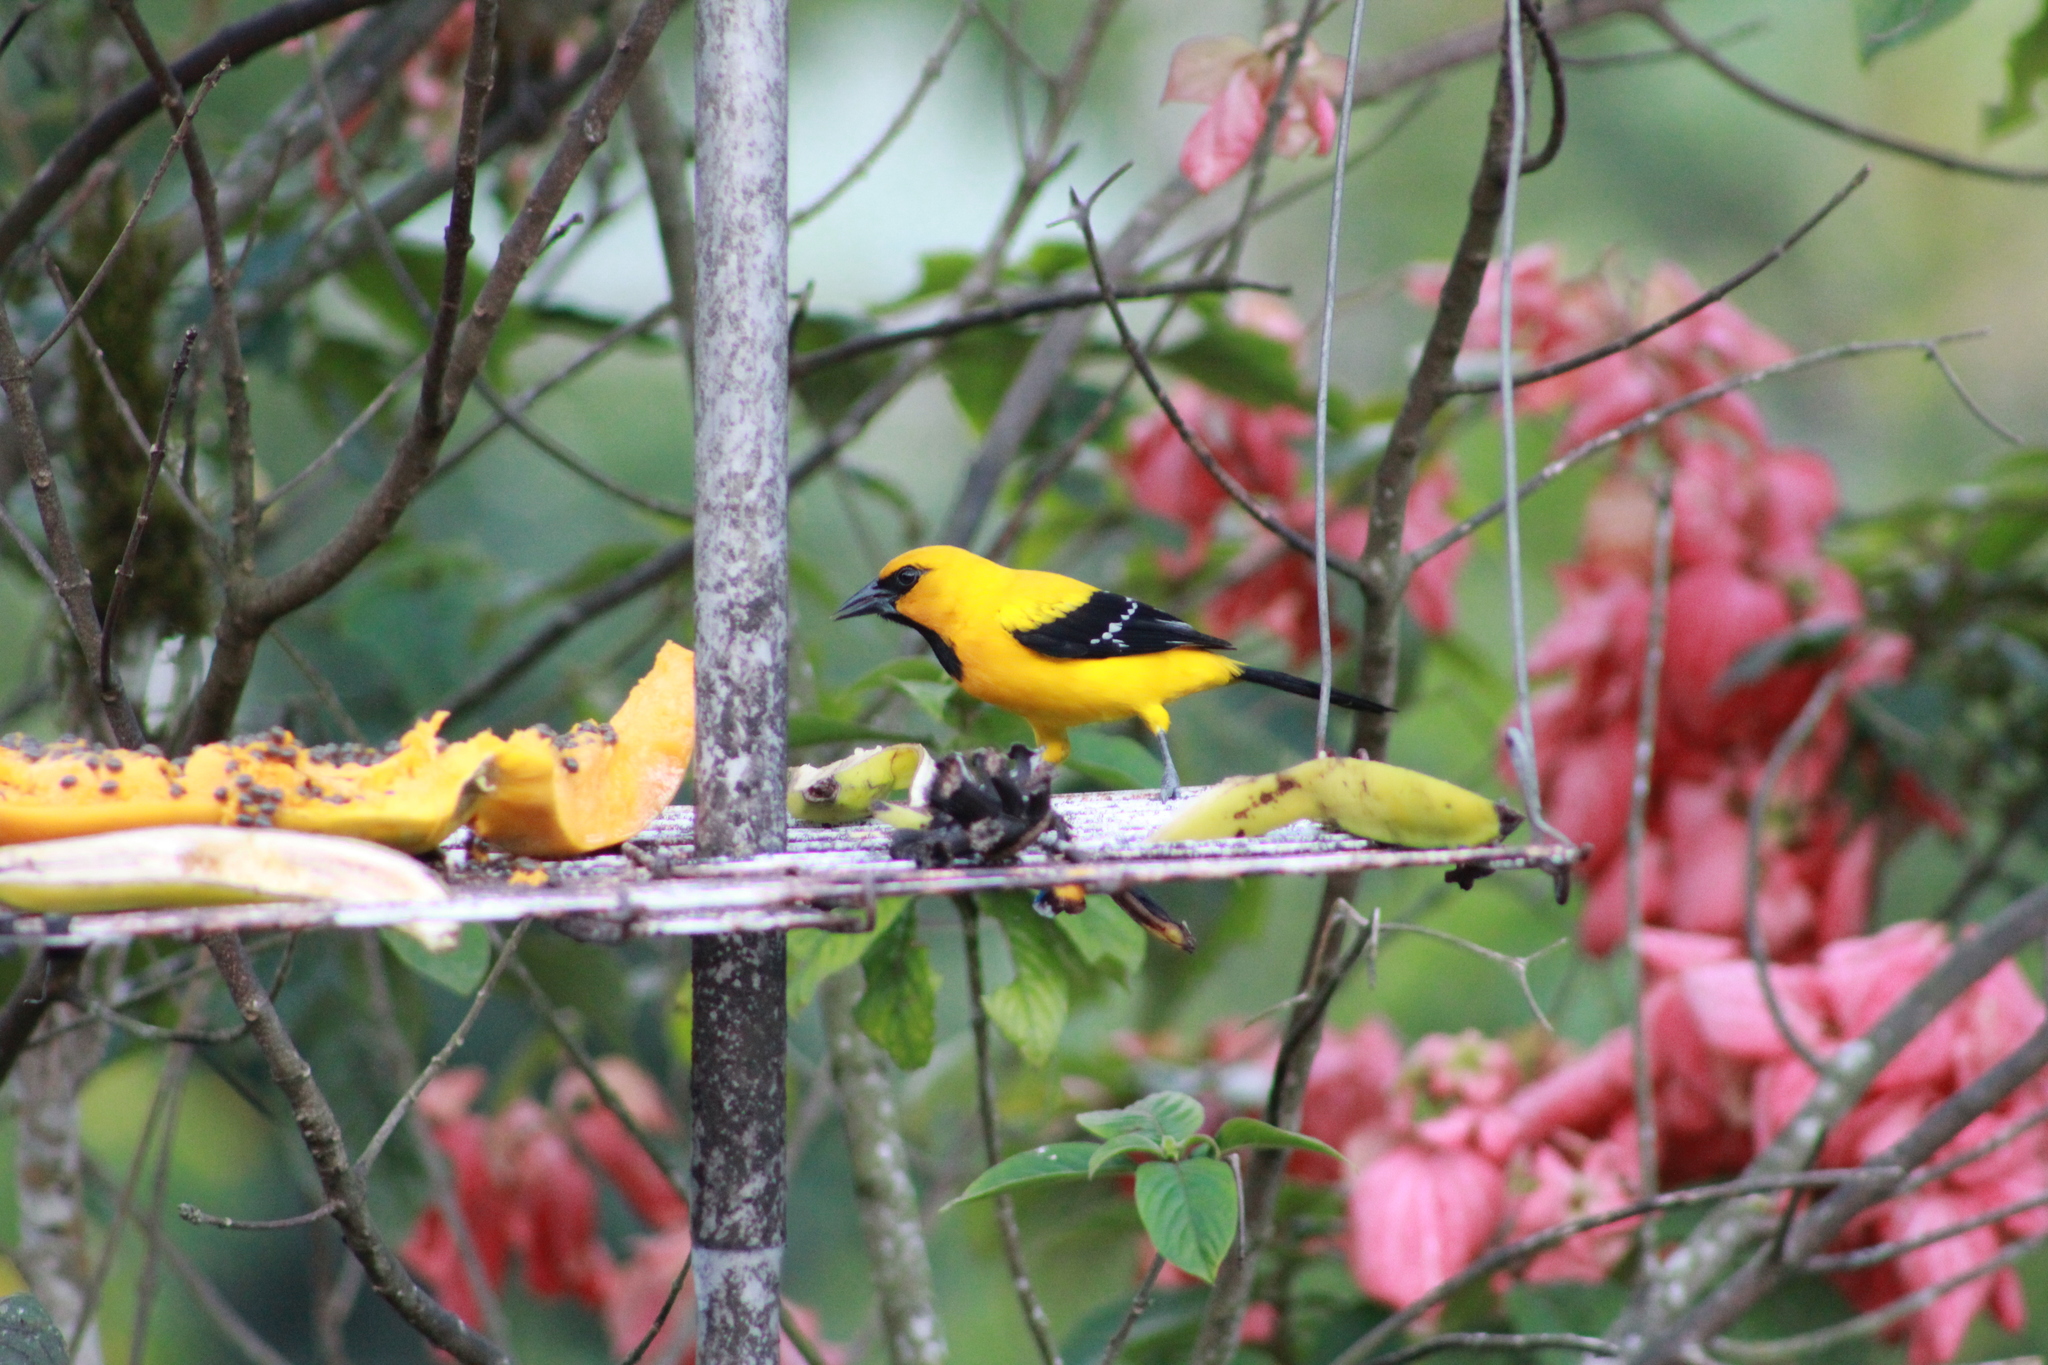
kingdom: Animalia
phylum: Chordata
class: Aves
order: Passeriformes
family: Icteridae
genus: Icterus
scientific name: Icterus nigrogularis
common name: Yellow oriole
